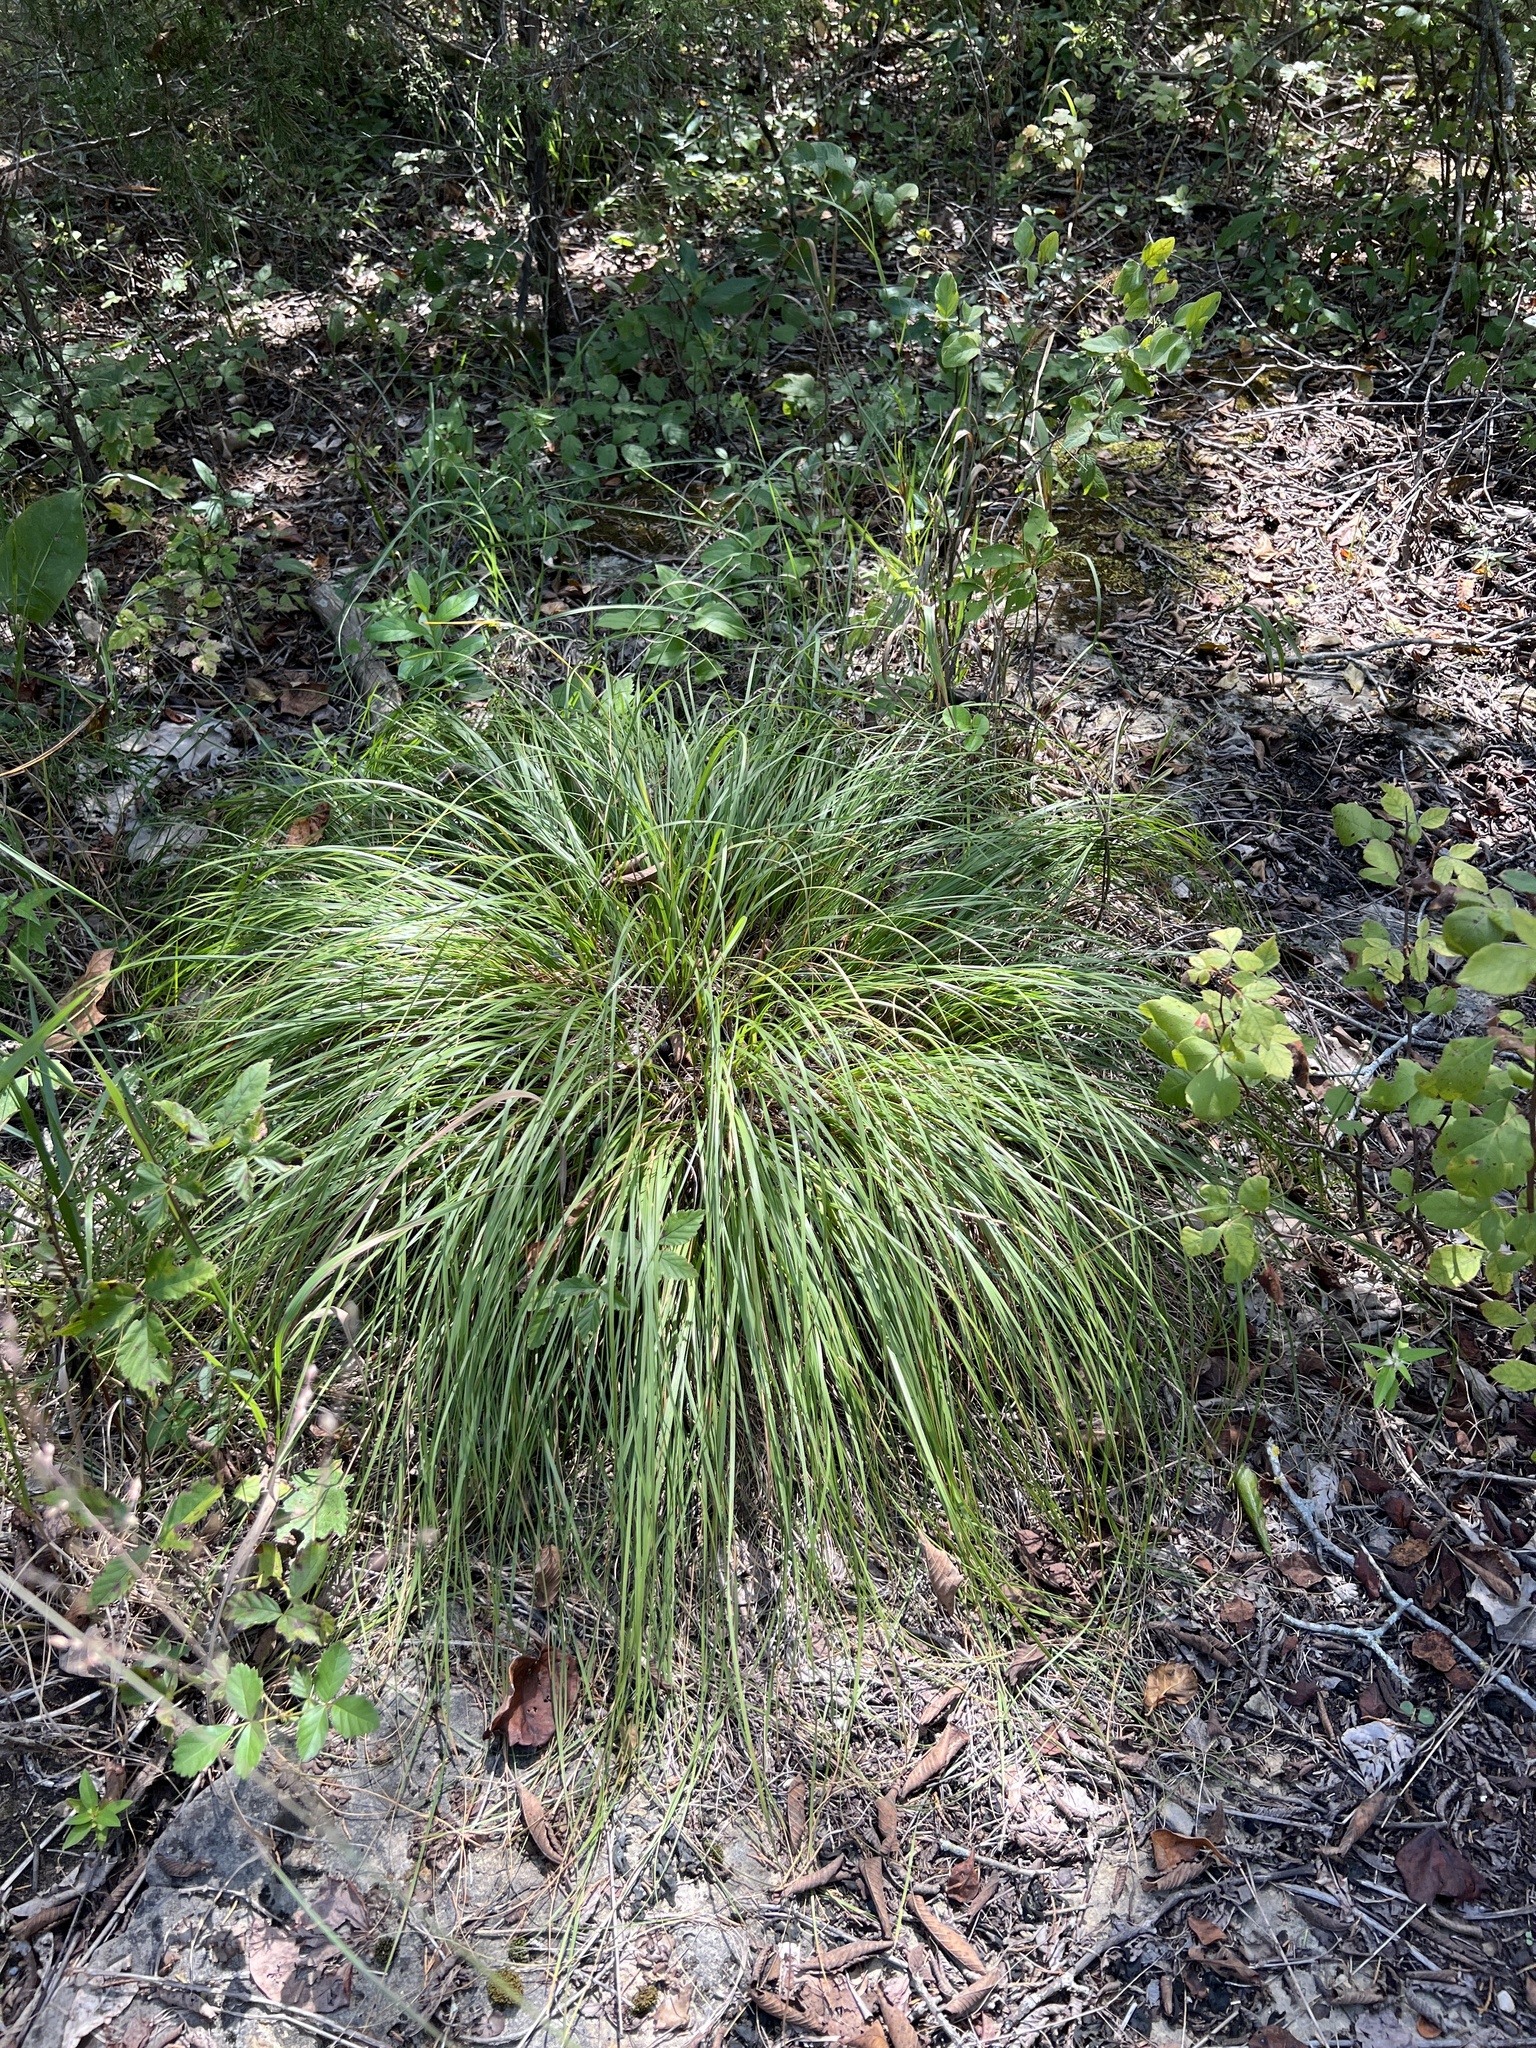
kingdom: Plantae
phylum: Tracheophyta
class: Liliopsida
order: Poales
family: Poaceae
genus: Sporobolus
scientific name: Sporobolus heterolepis
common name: Prairie dropseed
